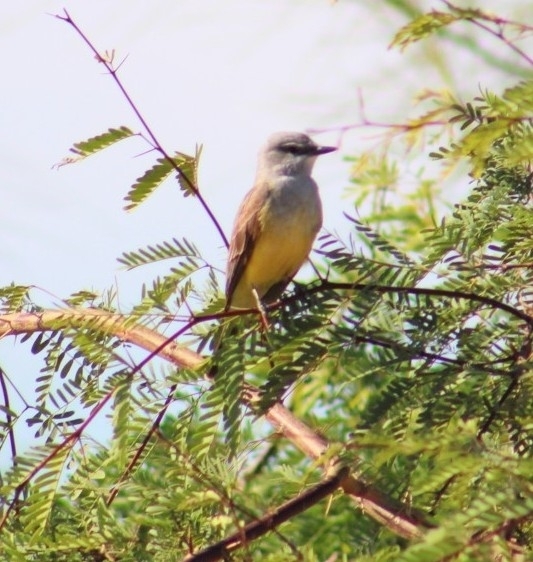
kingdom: Animalia
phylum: Chordata
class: Aves
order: Passeriformes
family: Tyrannidae
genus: Tyrannus
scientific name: Tyrannus verticalis
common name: Western kingbird
